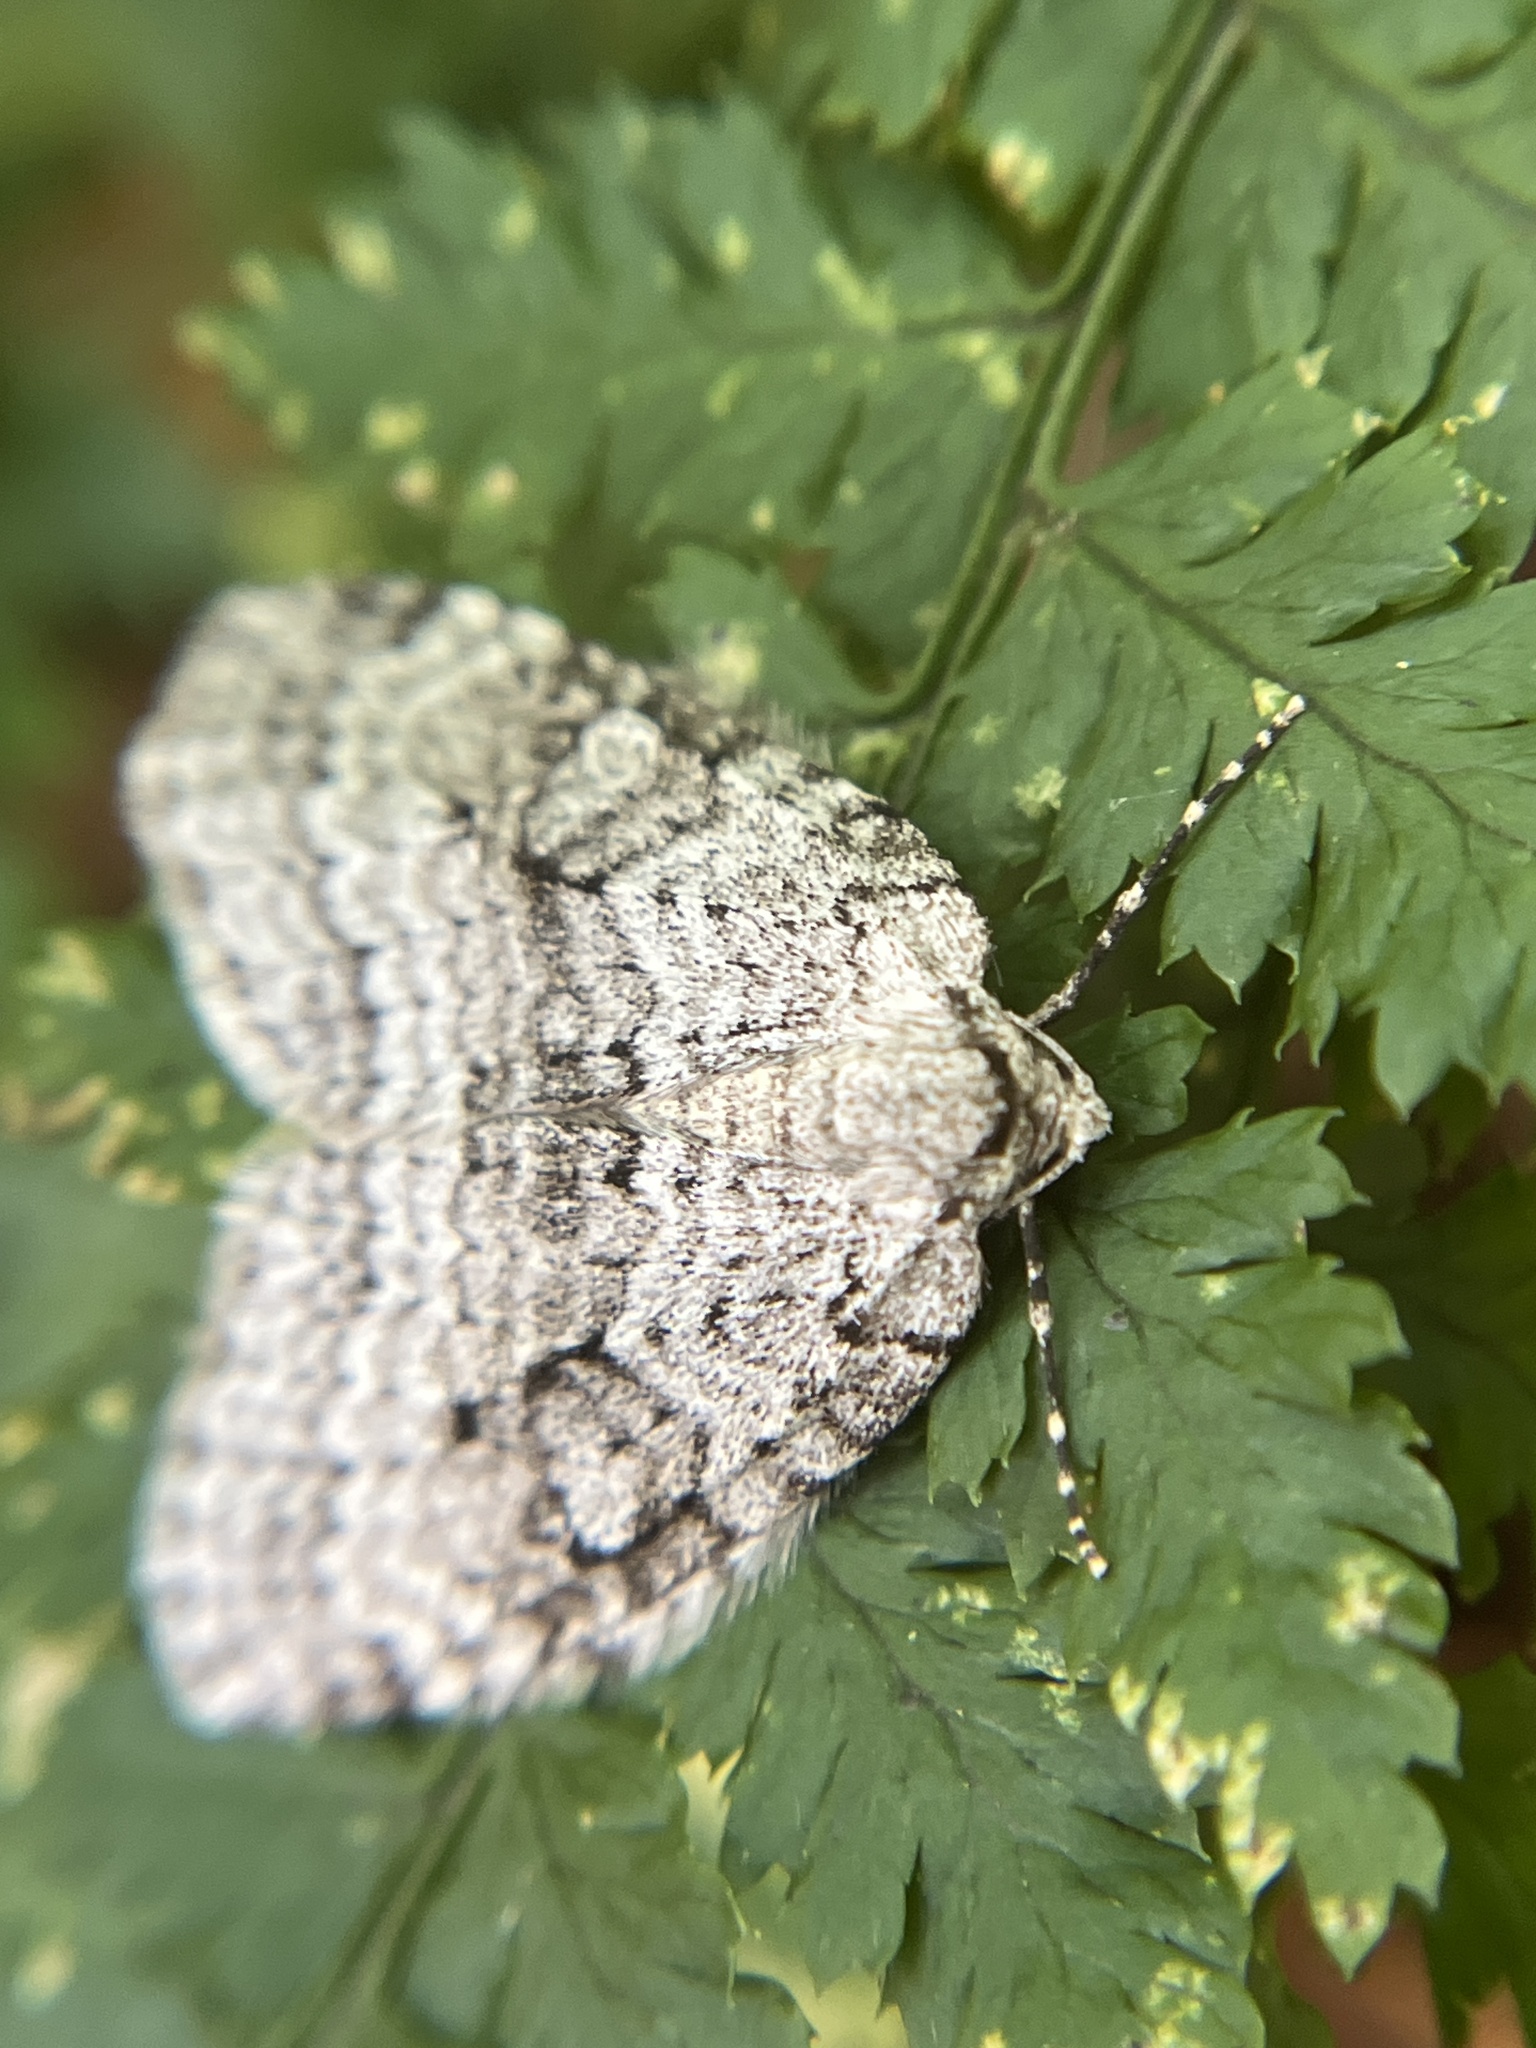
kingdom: Animalia
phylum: Arthropoda
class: Insecta
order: Lepidoptera
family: Geometridae
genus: Epirrita
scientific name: Epirrita autumnata
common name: Autumnal moth
